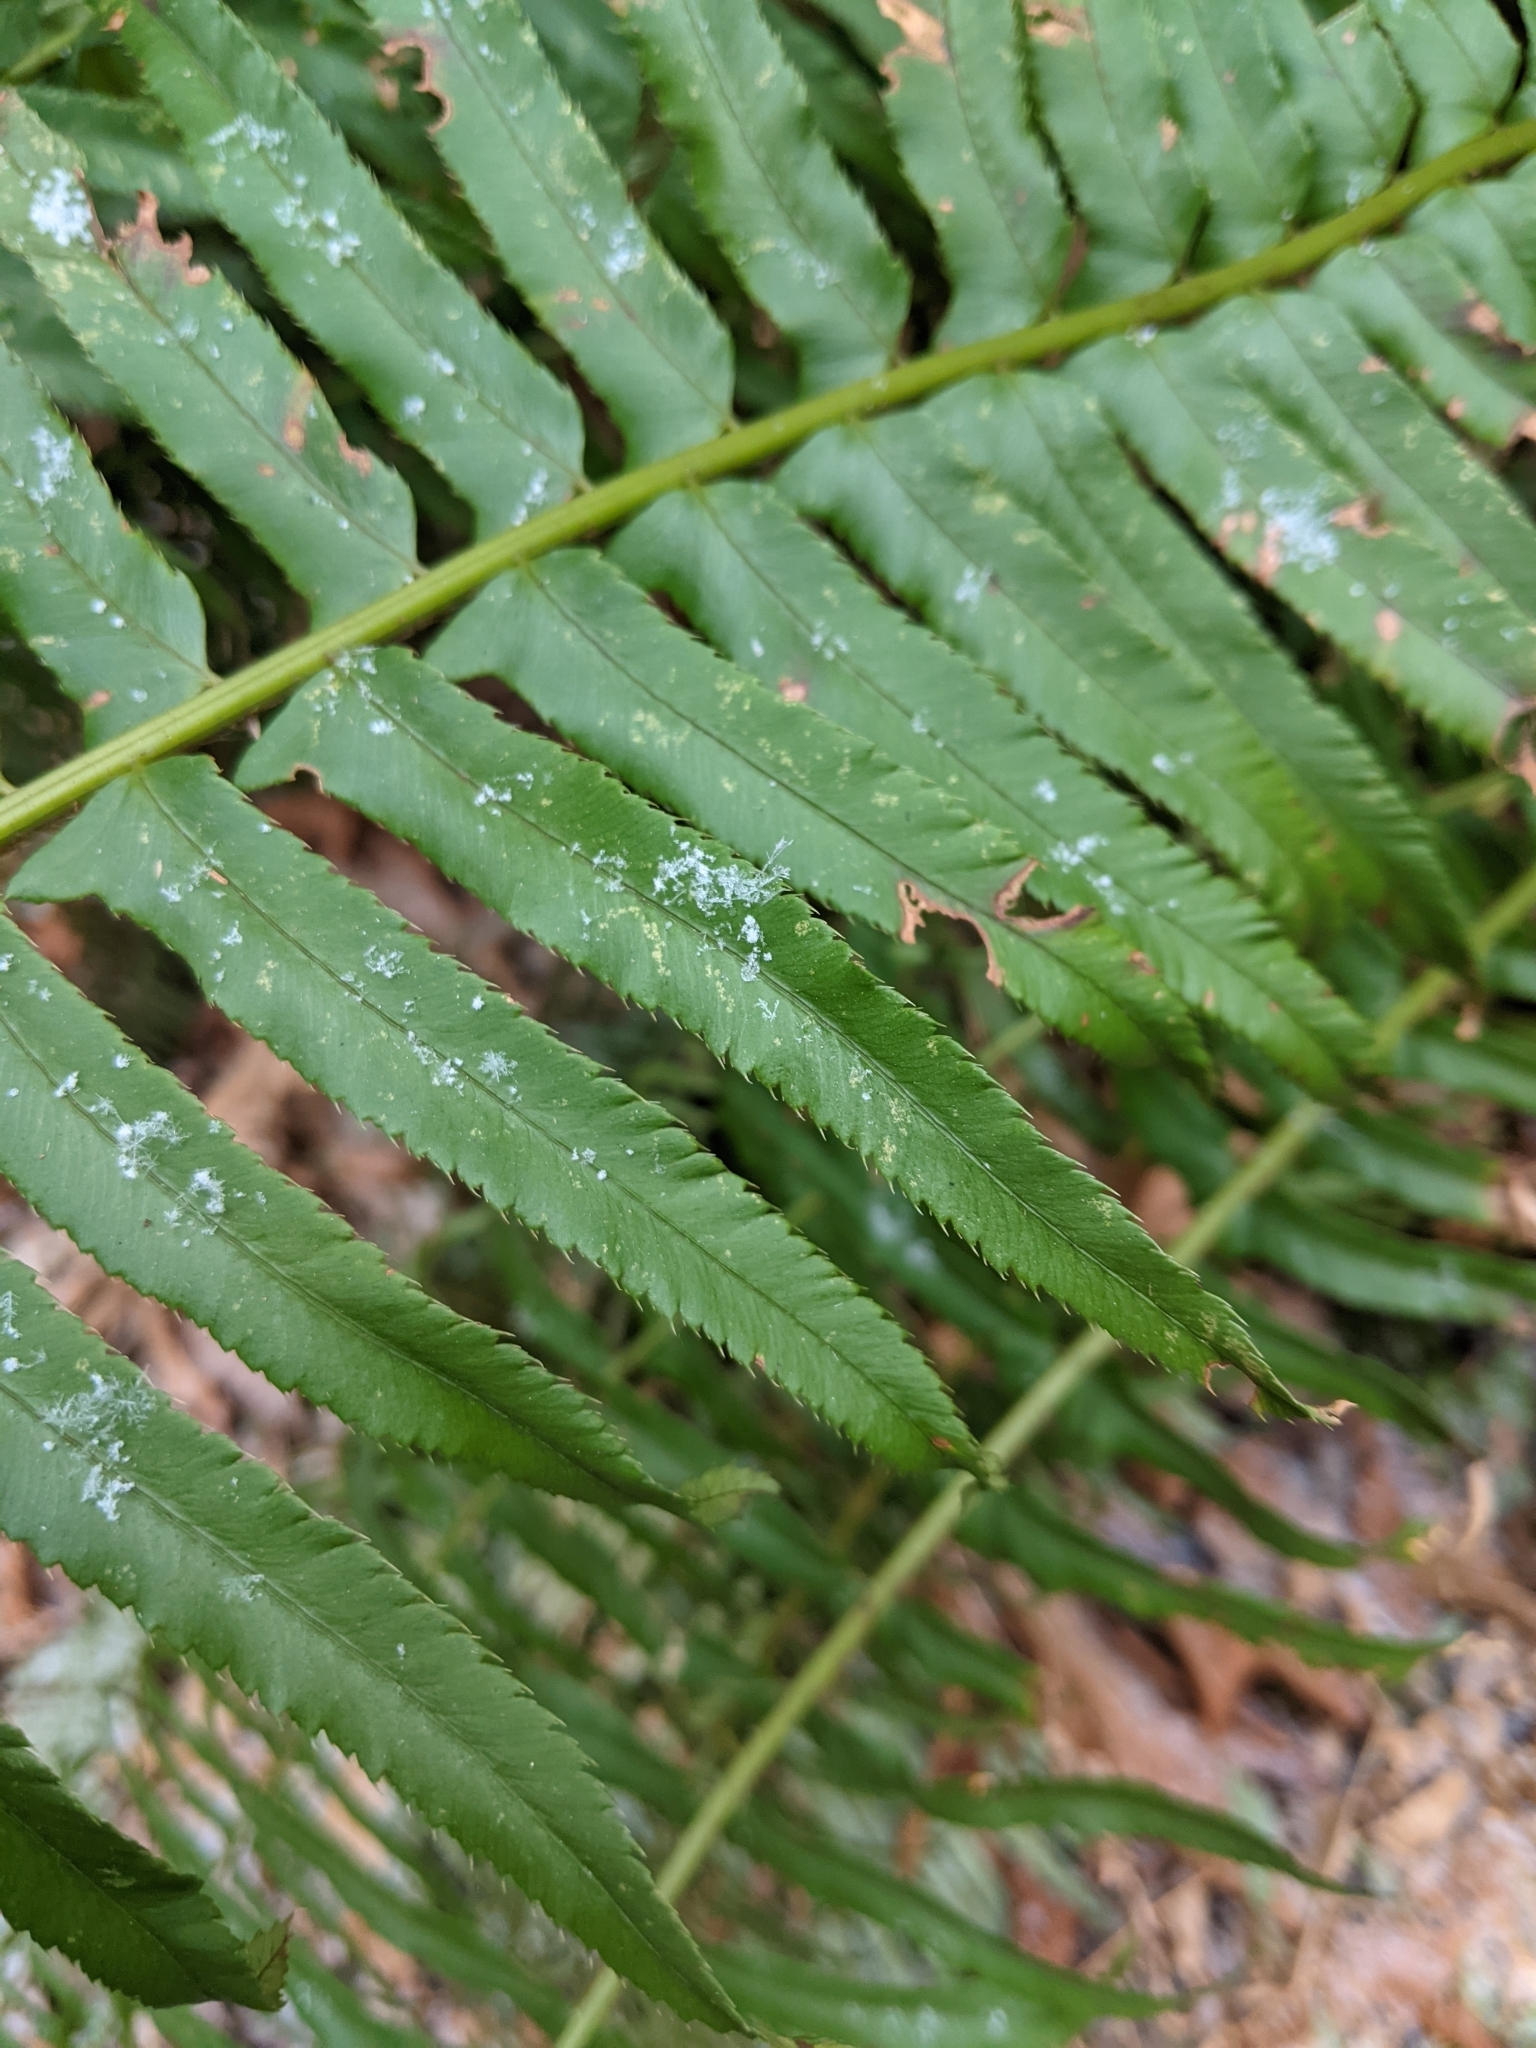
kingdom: Plantae
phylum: Tracheophyta
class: Polypodiopsida
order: Polypodiales
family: Dryopteridaceae
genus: Polystichum
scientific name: Polystichum munitum
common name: Western sword-fern
